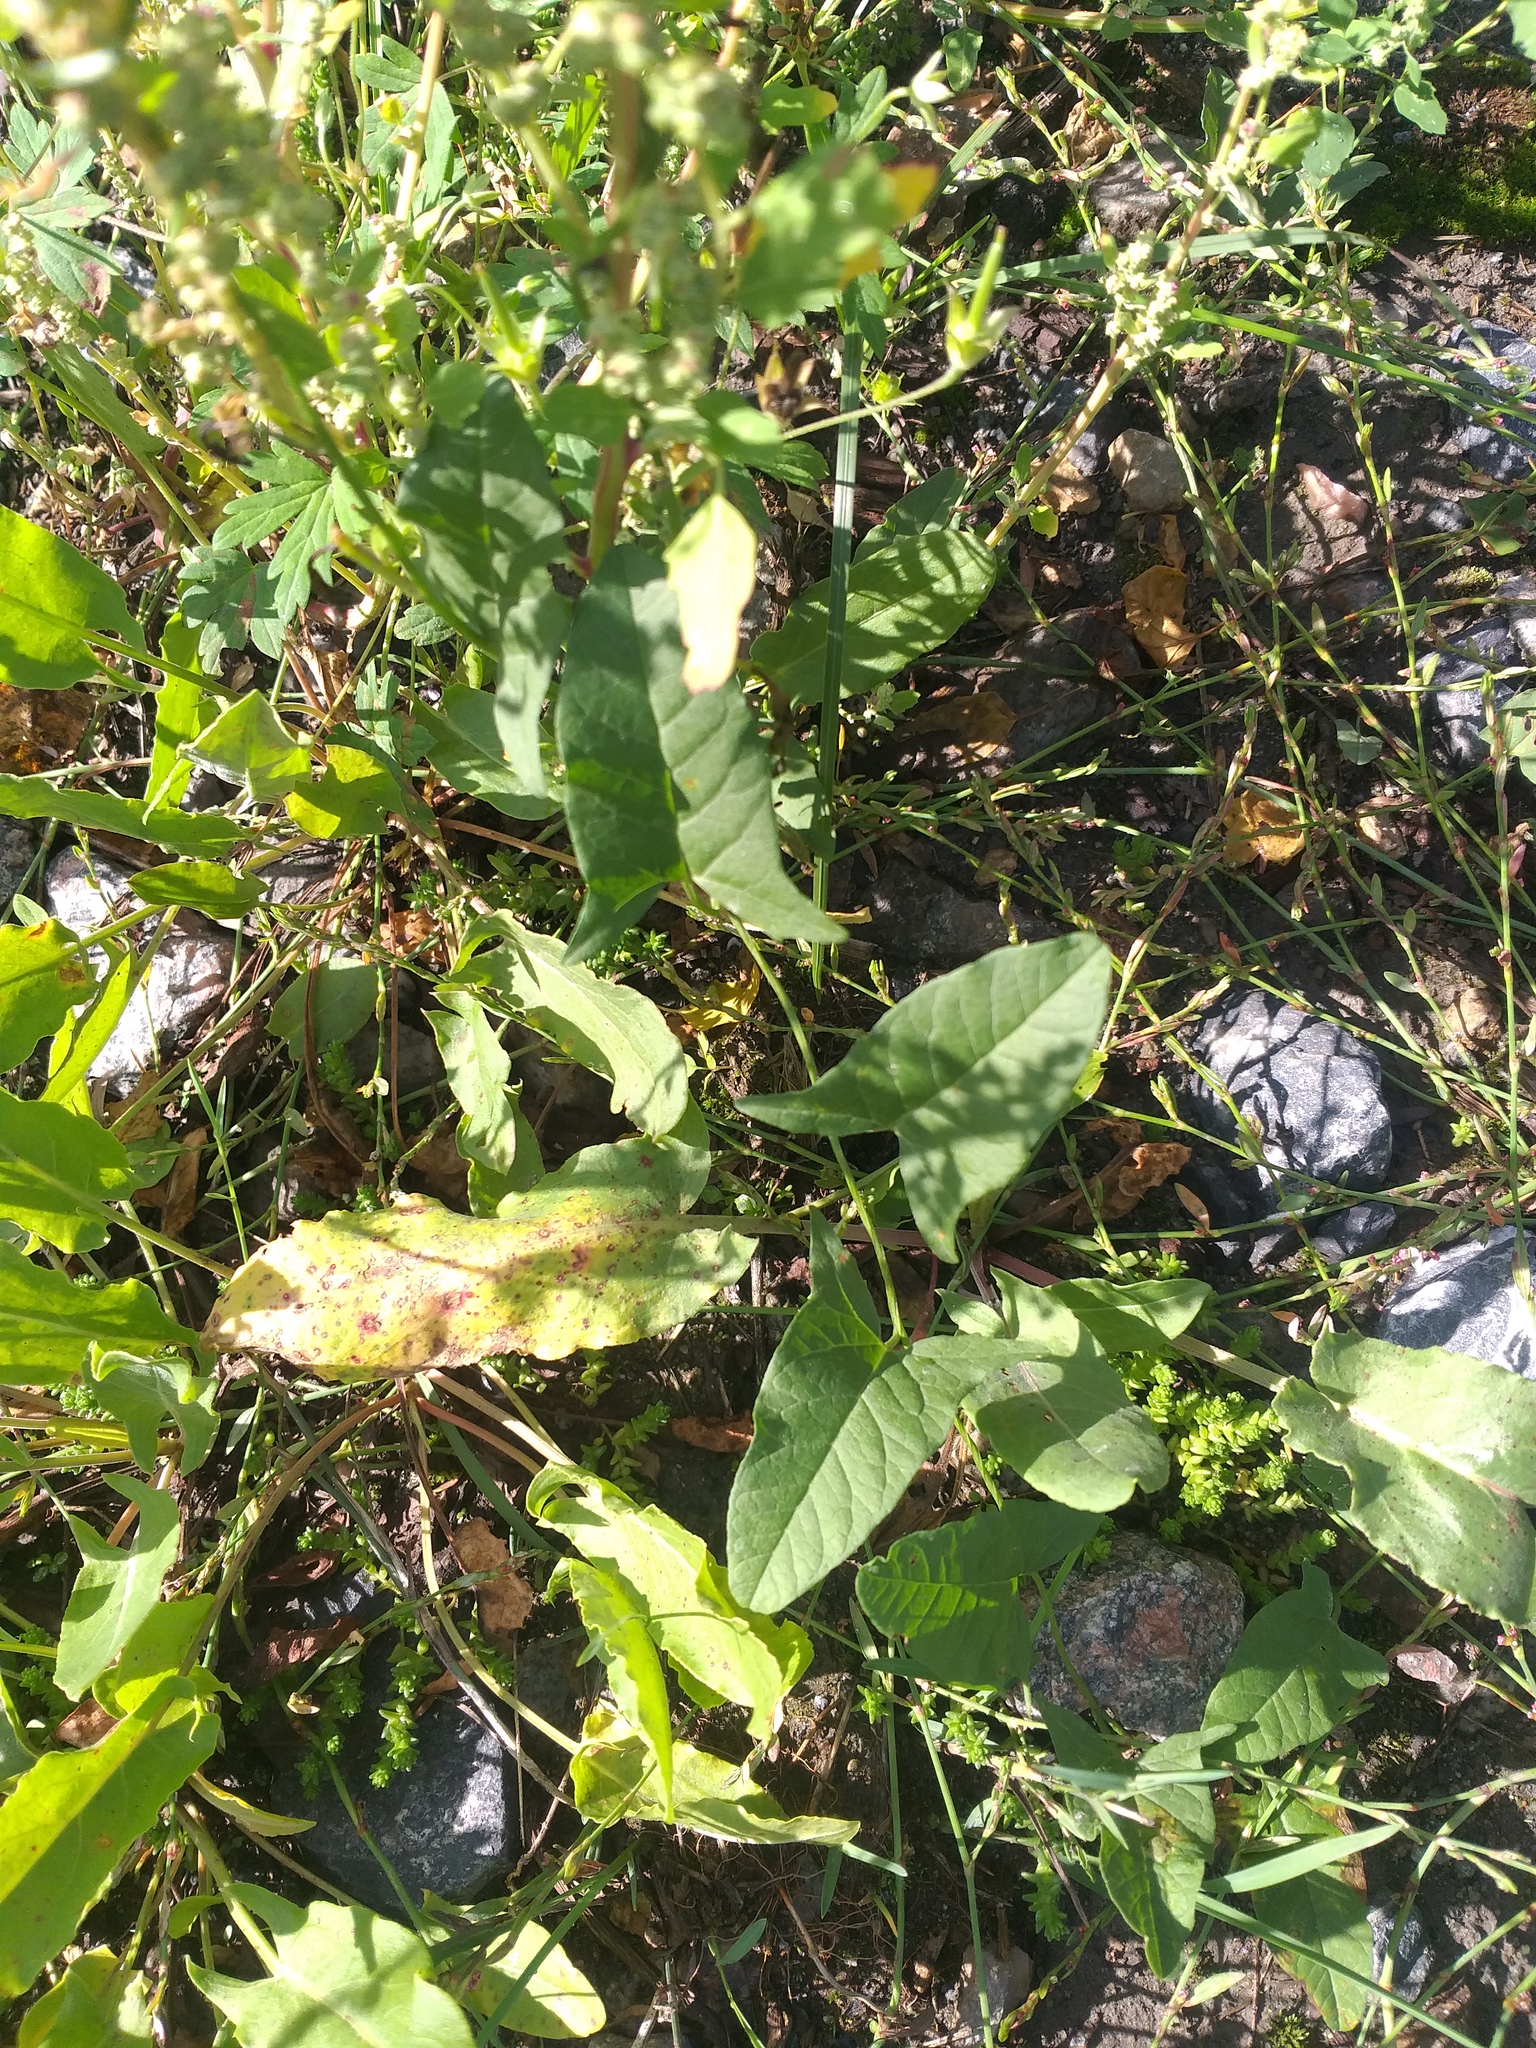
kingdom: Plantae
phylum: Tracheophyta
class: Magnoliopsida
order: Solanales
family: Convolvulaceae
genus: Convolvulus
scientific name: Convolvulus arvensis
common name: Field bindweed
